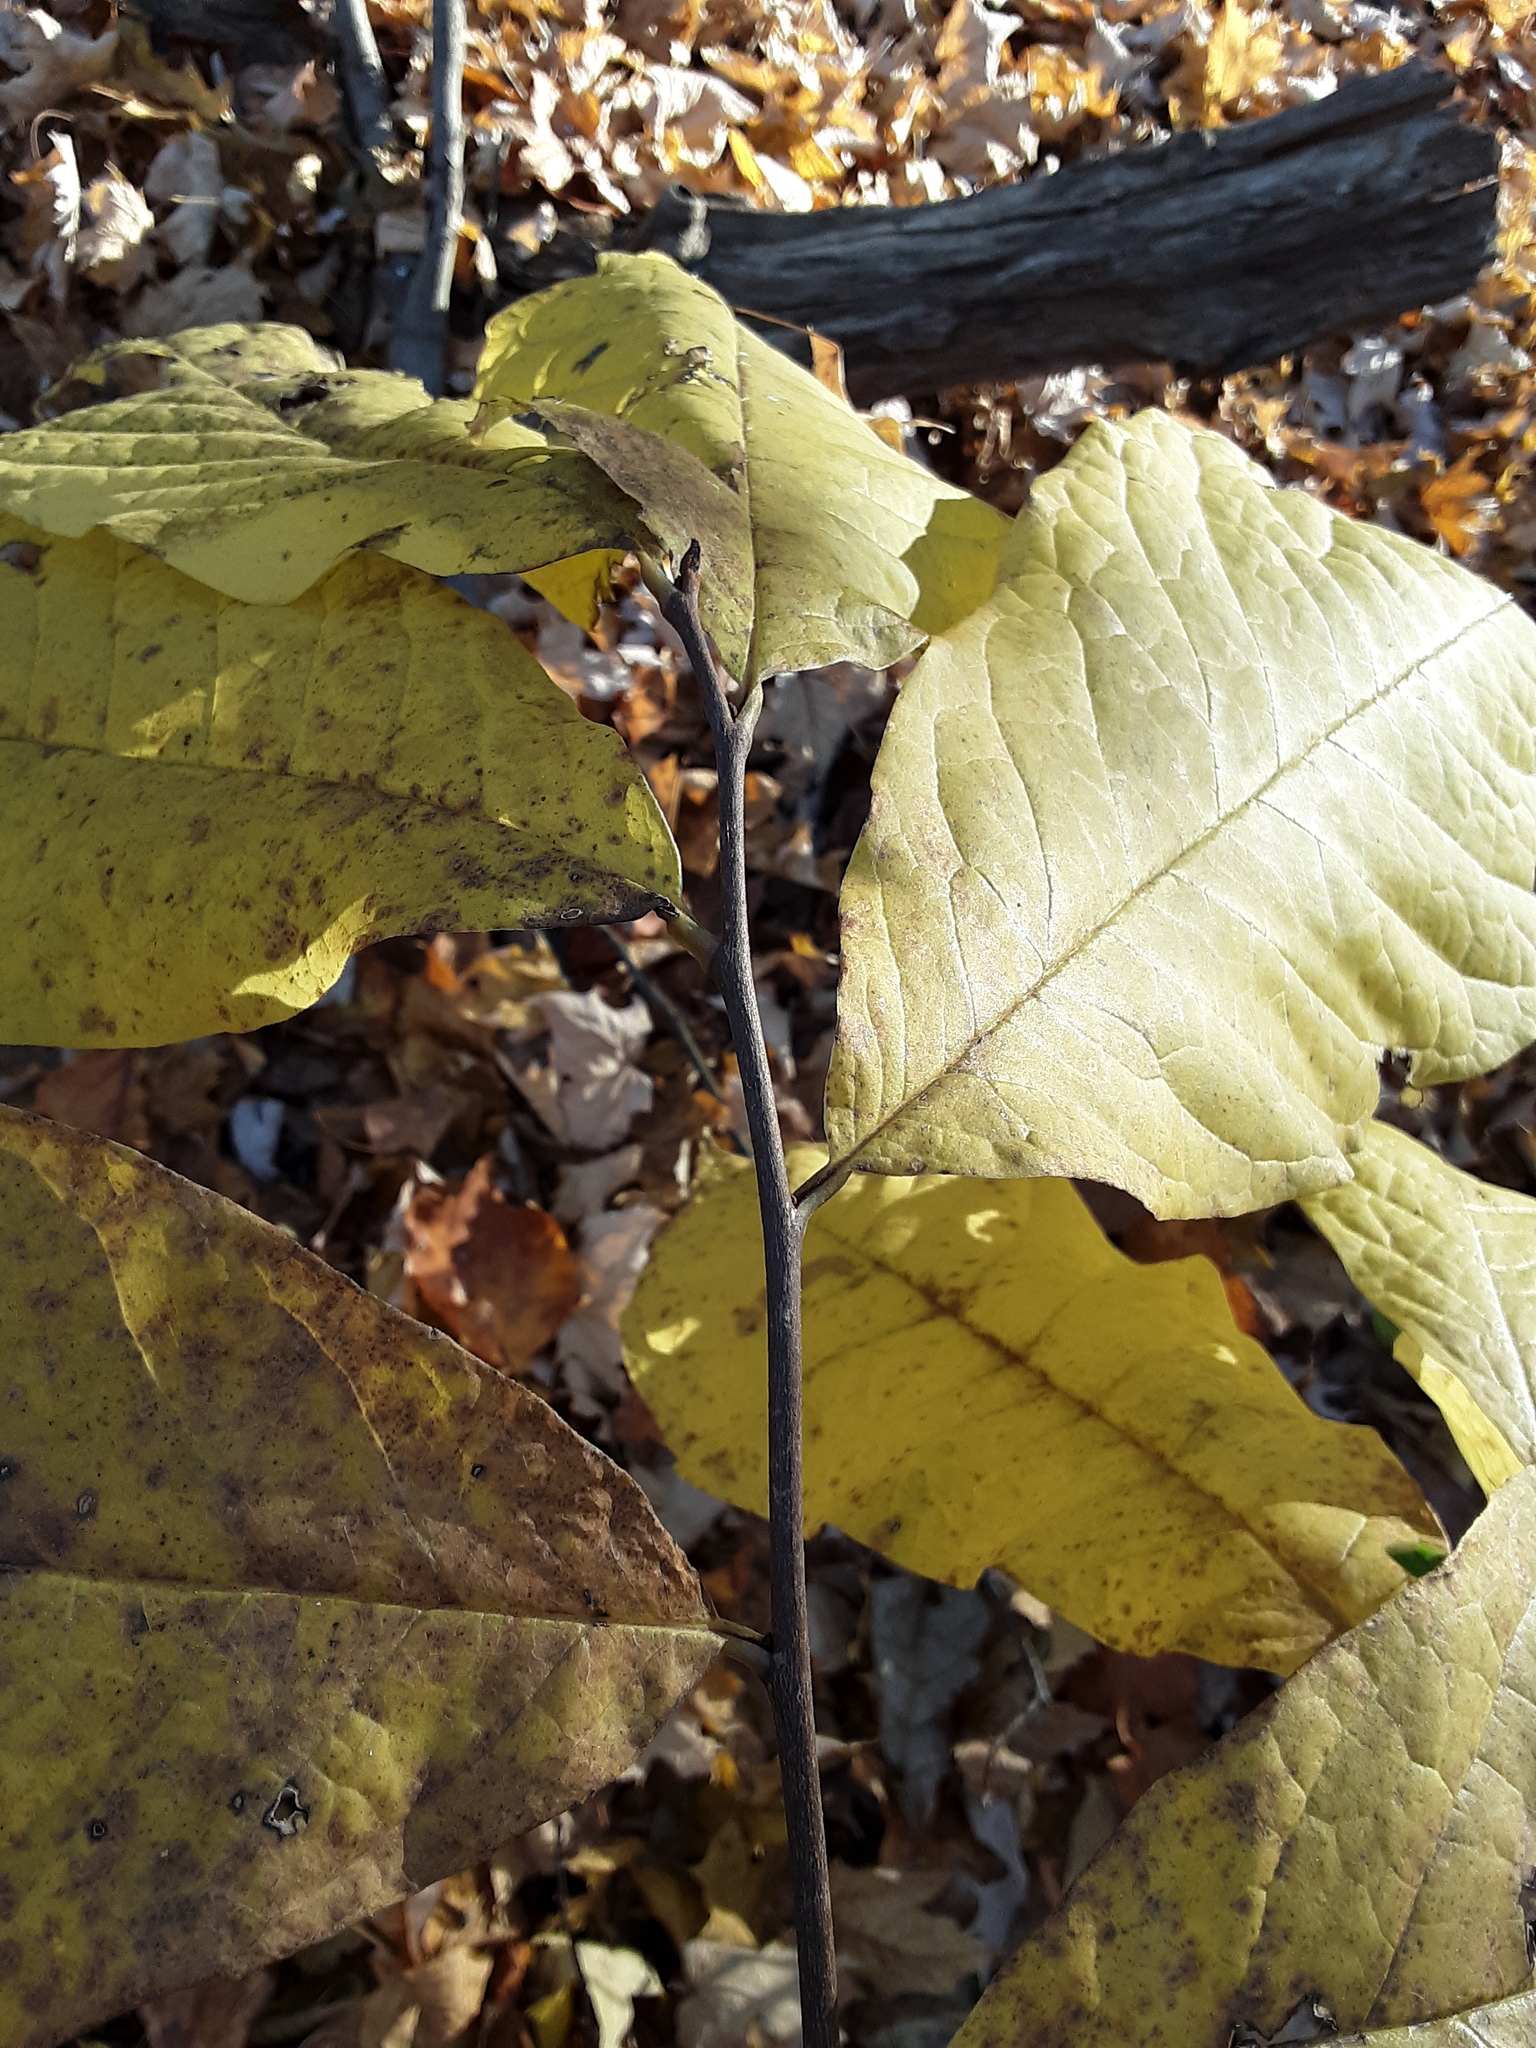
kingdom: Plantae
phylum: Tracheophyta
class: Magnoliopsida
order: Magnoliales
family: Annonaceae
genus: Asimina
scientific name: Asimina triloba
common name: Dog-banana
